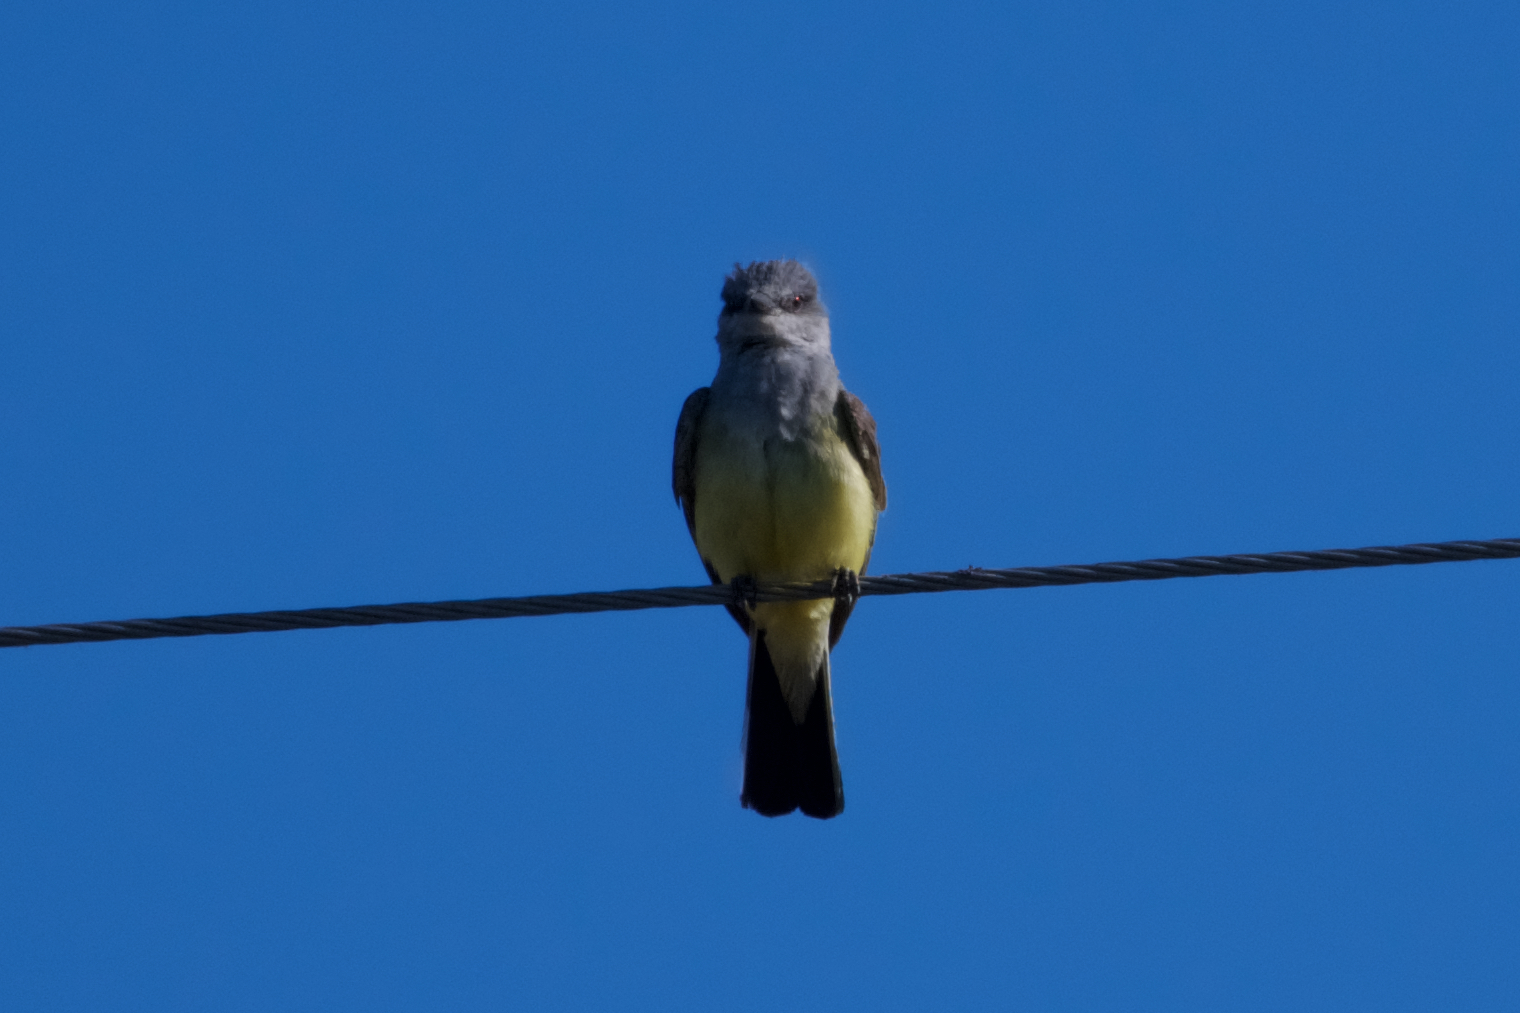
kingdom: Animalia
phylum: Chordata
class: Aves
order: Passeriformes
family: Tyrannidae
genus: Tyrannus
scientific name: Tyrannus verticalis
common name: Western kingbird
